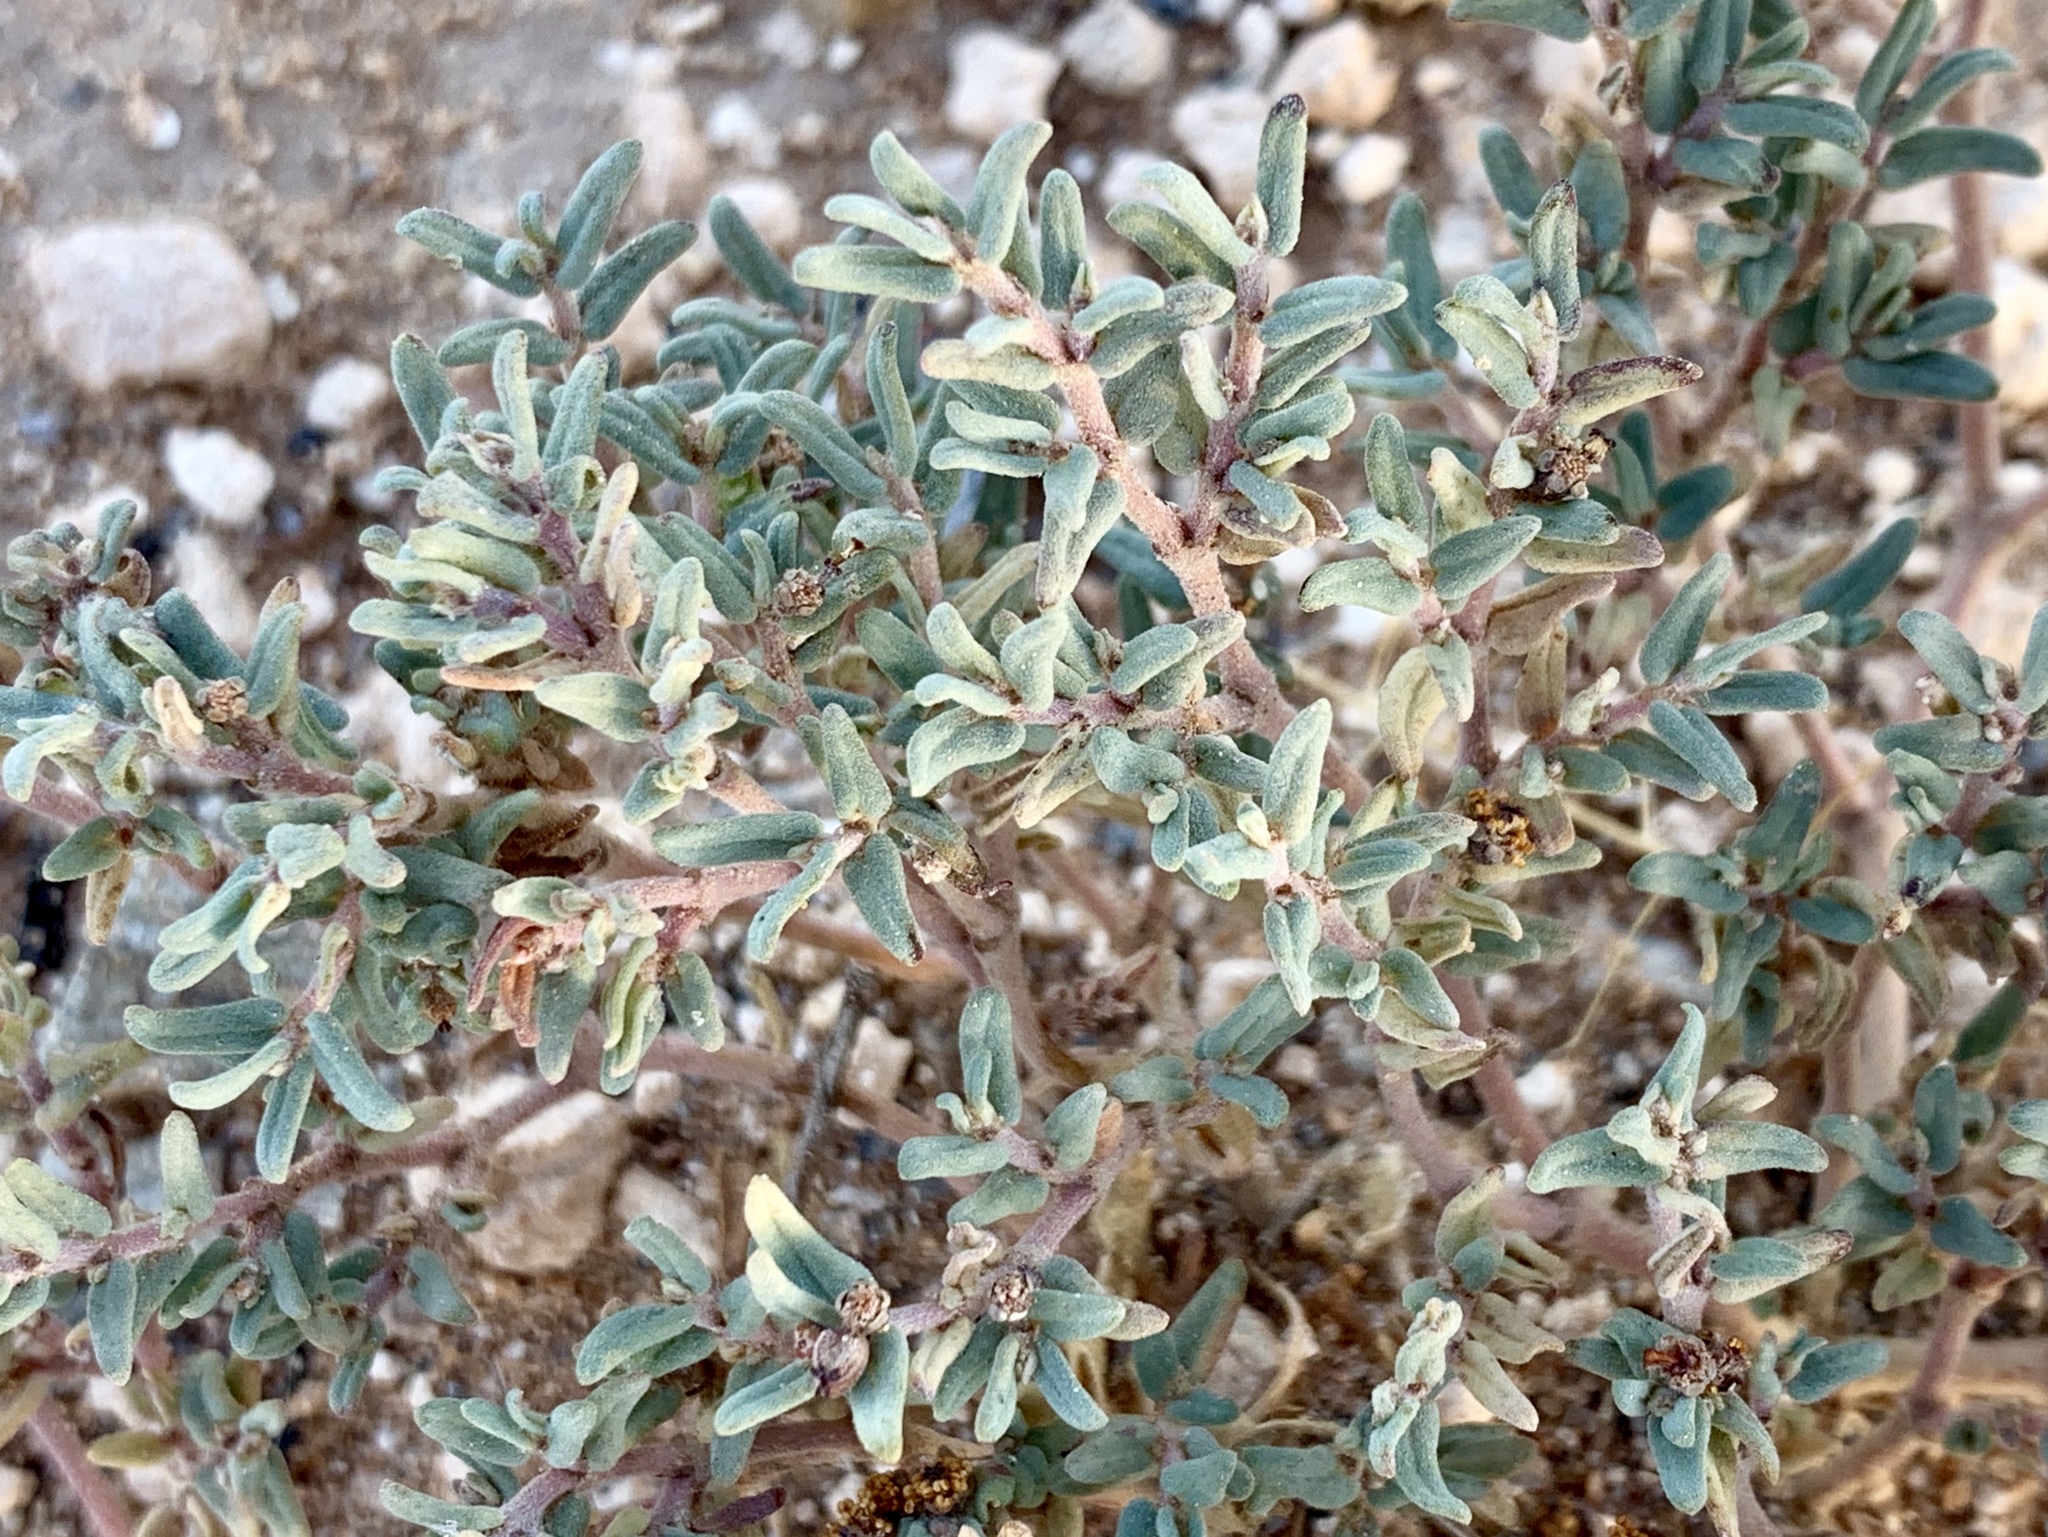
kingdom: Plantae
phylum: Tracheophyta
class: Magnoliopsida
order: Malpighiales
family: Euphorbiaceae
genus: Euphorbia
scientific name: Euphorbia lata
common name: Hoary euphorbia
